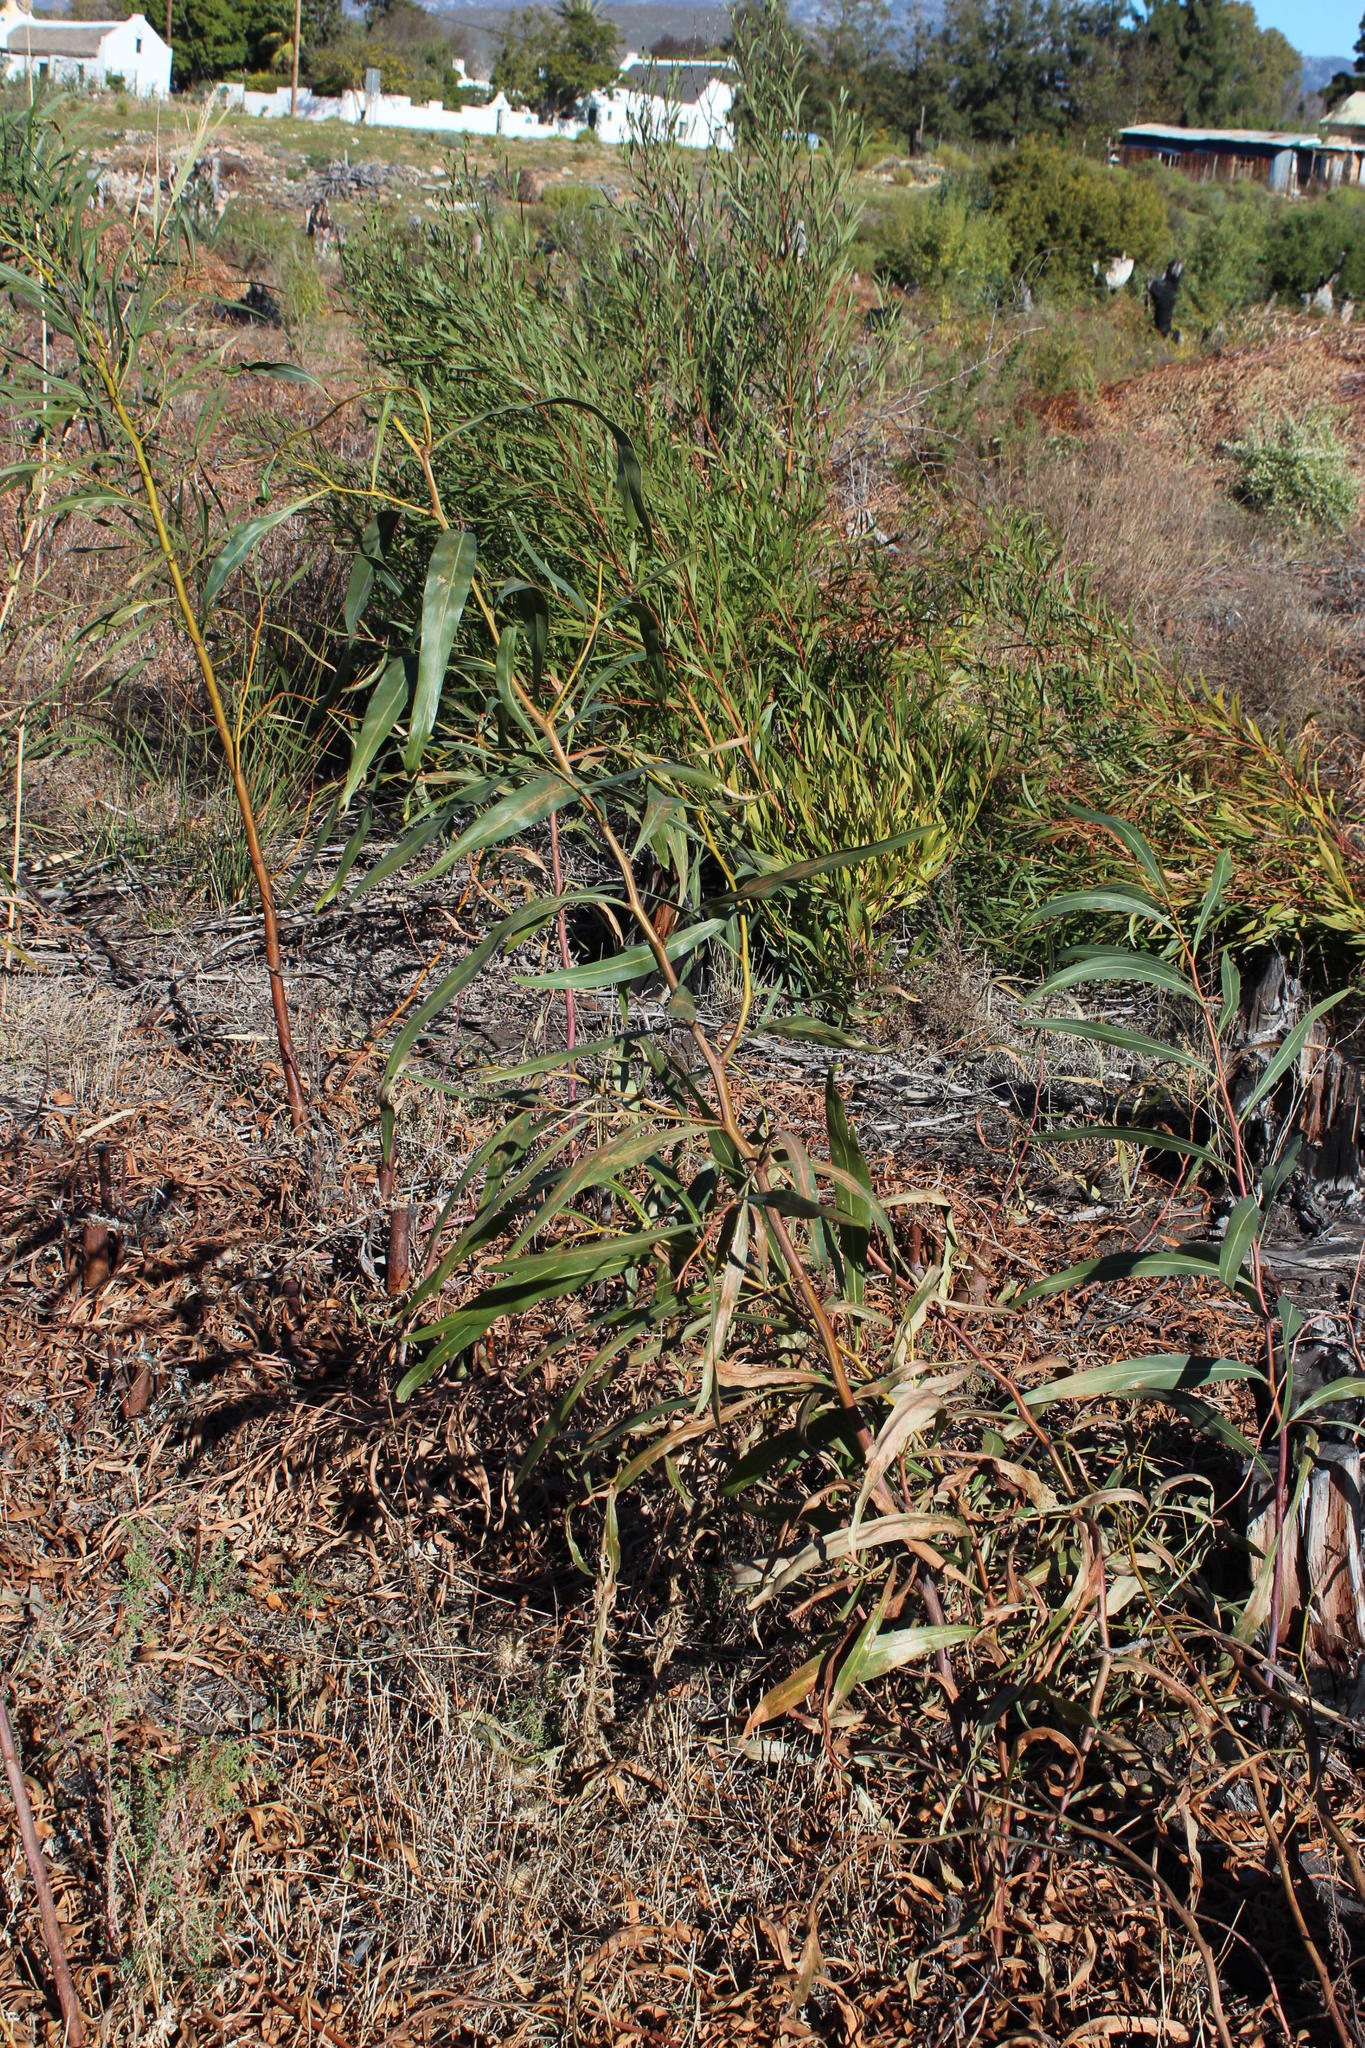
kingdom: Plantae
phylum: Tracheophyta
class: Magnoliopsida
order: Fabales
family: Fabaceae
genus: Acacia
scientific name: Acacia saligna
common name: Orange wattle
